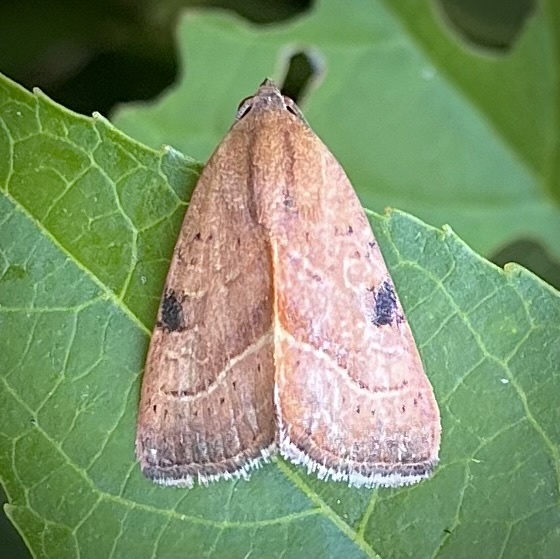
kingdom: Animalia
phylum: Arthropoda
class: Insecta
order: Lepidoptera
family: Noctuidae
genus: Galgula
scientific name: Galgula partita
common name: Wedgeling
